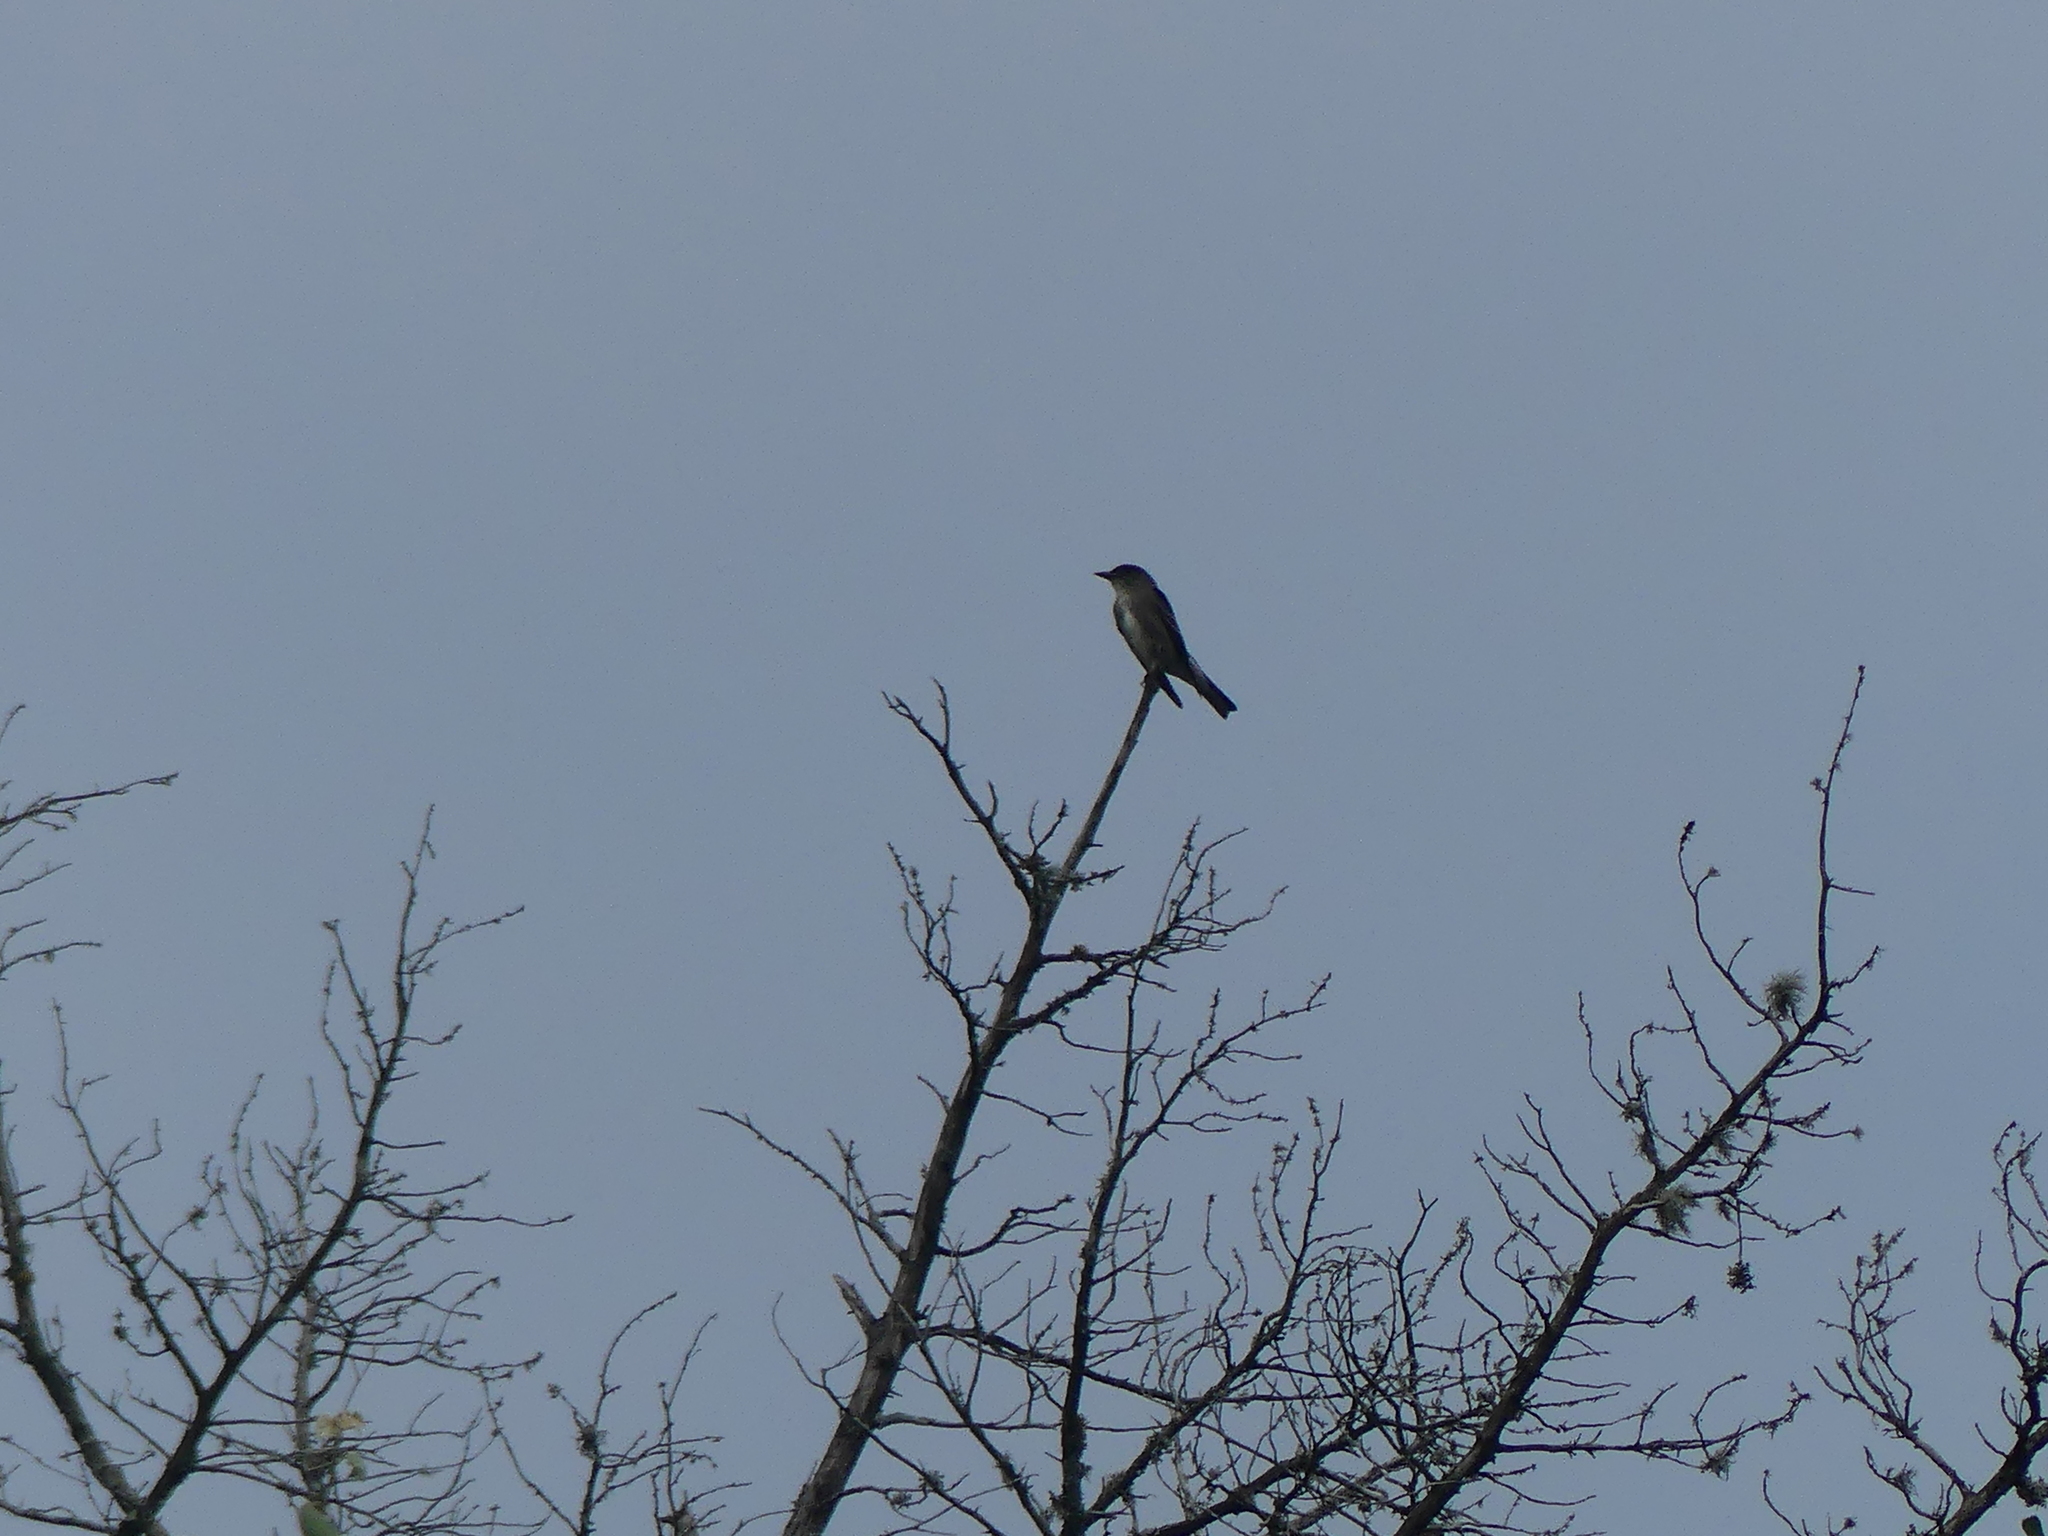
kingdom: Animalia
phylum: Chordata
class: Aves
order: Passeriformes
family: Tyrannidae
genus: Contopus
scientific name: Contopus cooperi
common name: Olive-sided flycatcher
